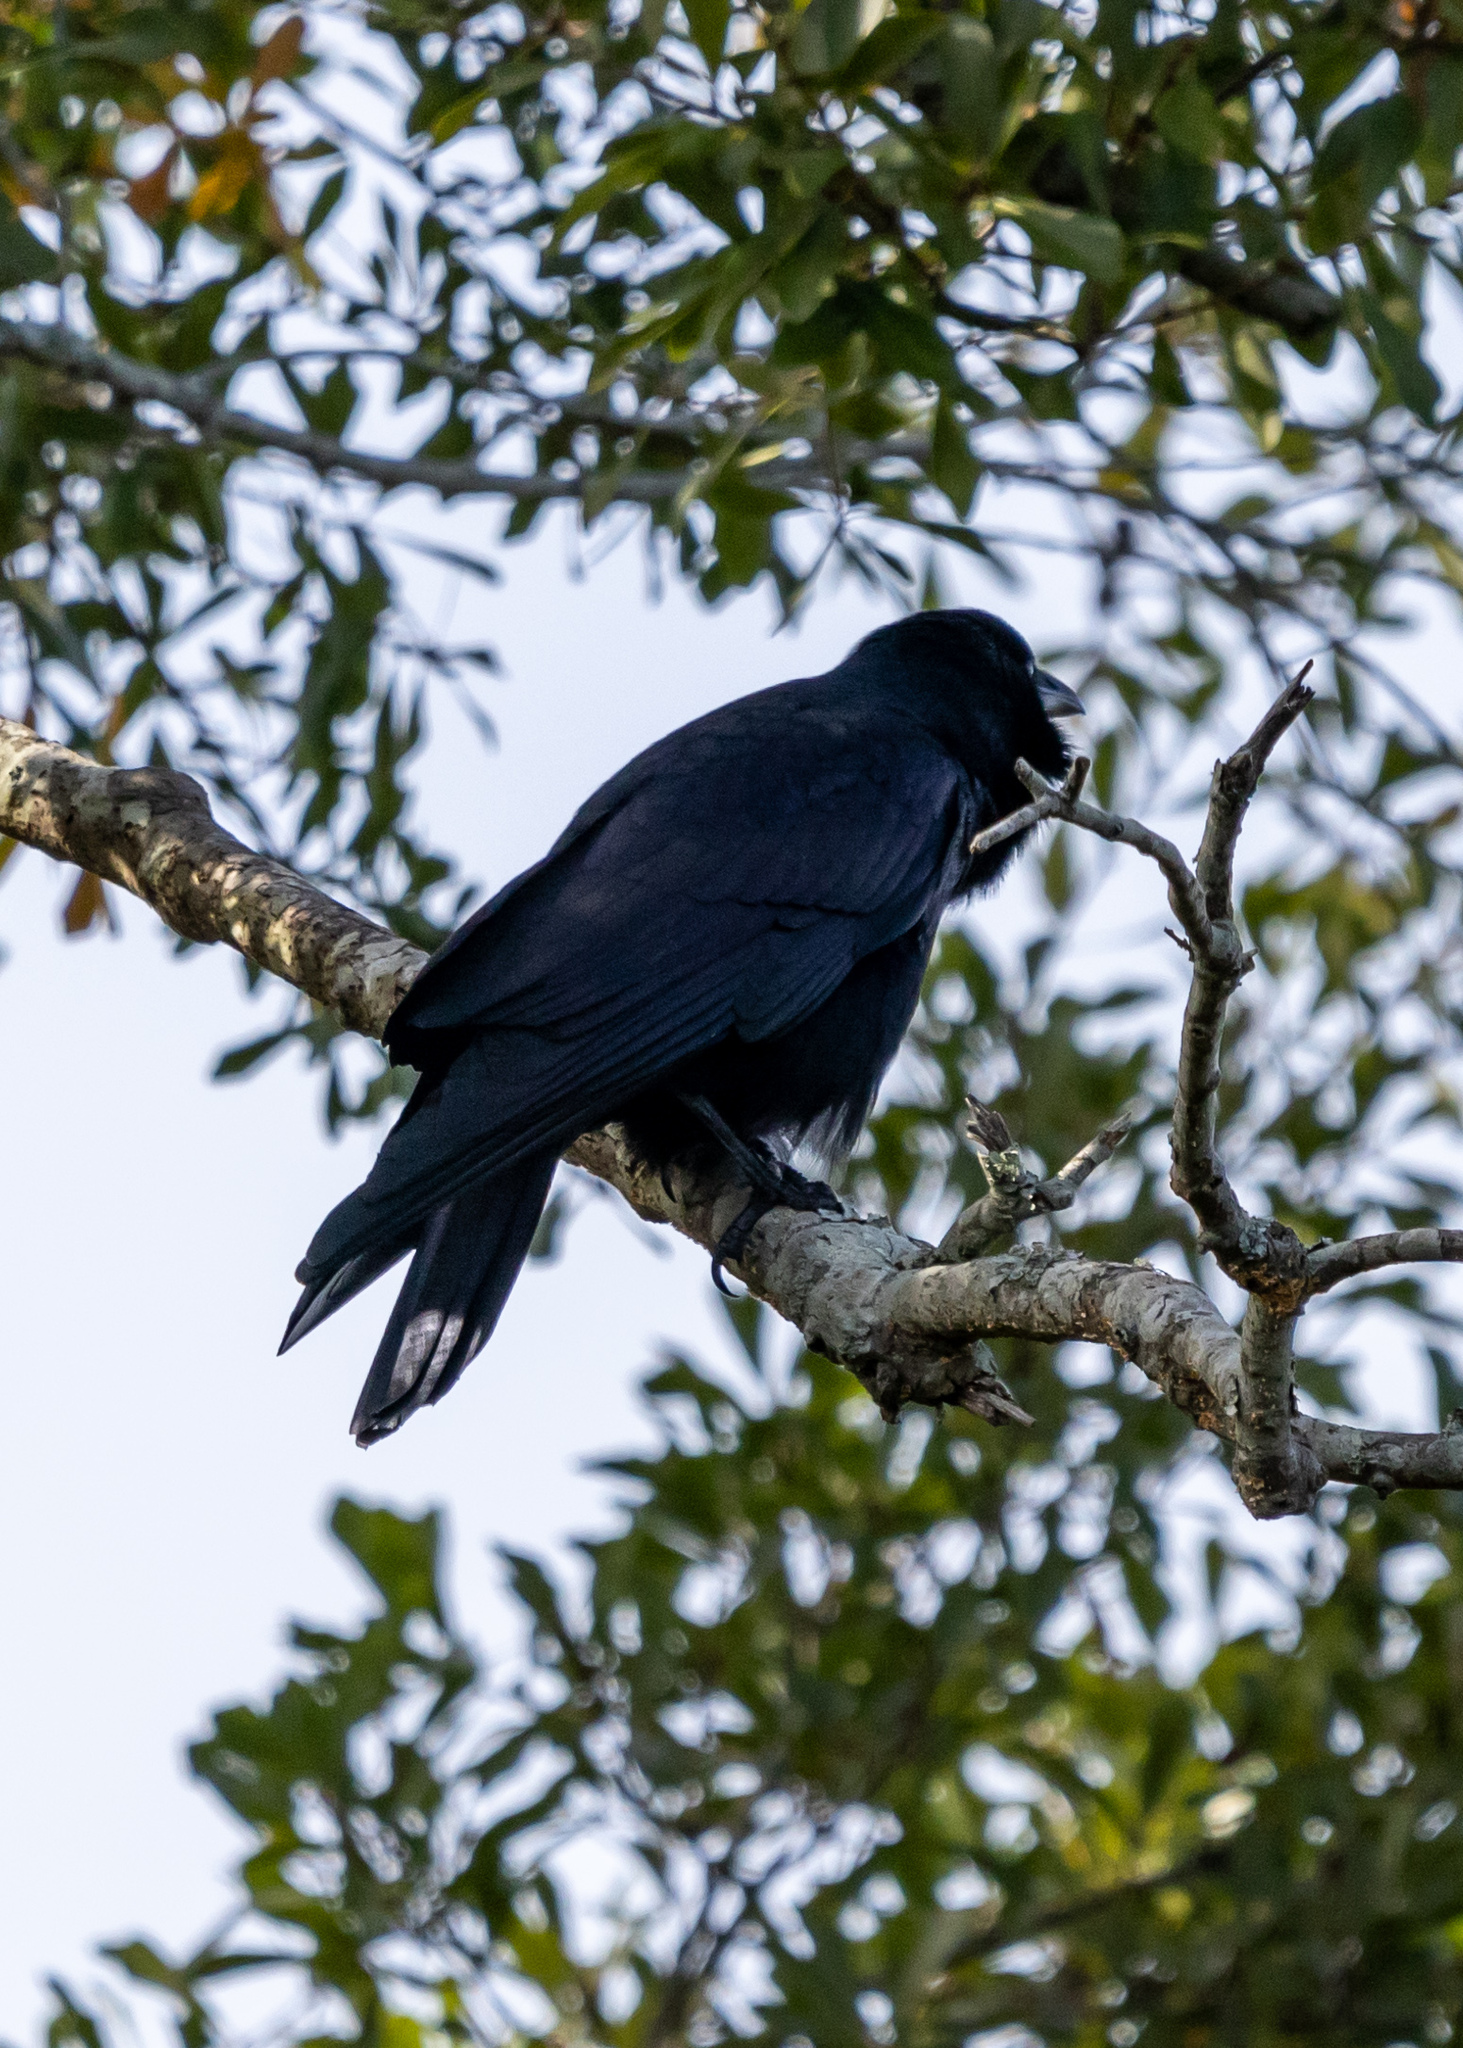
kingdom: Animalia
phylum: Chordata
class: Aves
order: Passeriformes
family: Corvidae
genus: Corvus
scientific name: Corvus ossifragus
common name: Fish crow
